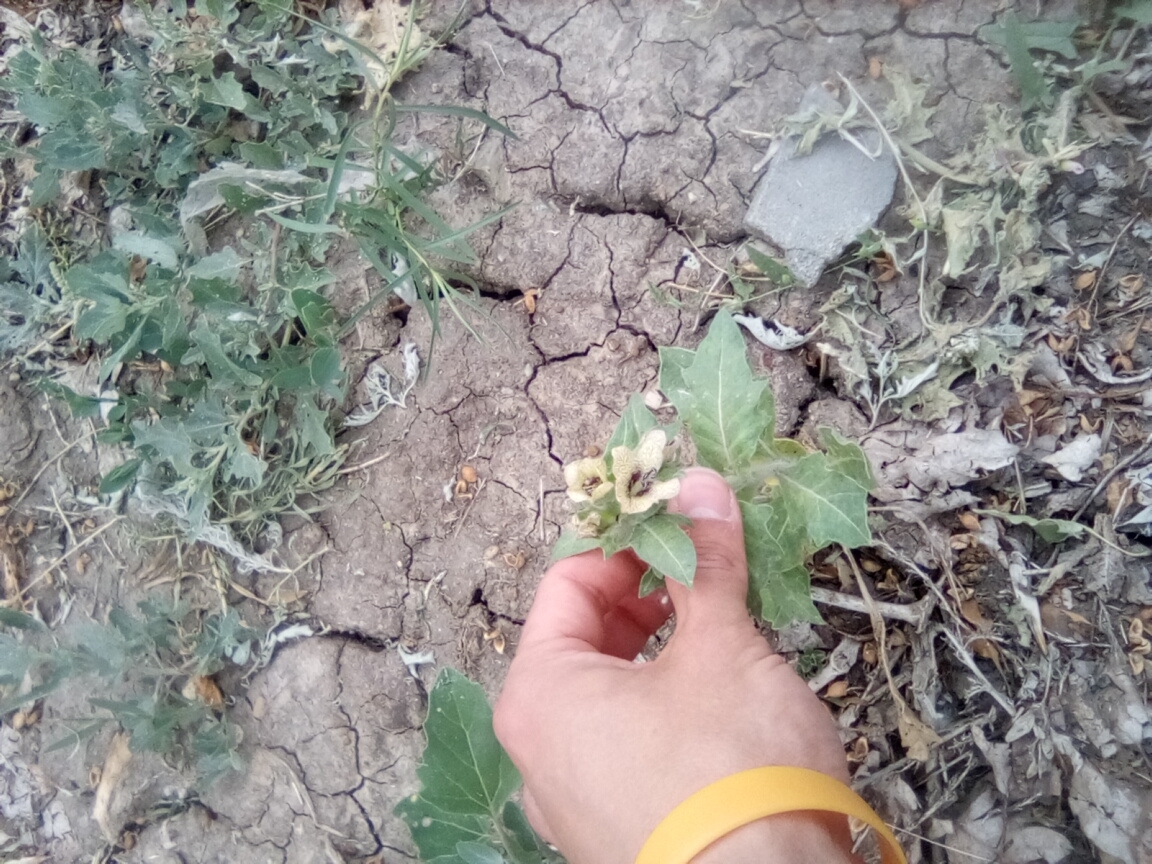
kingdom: Plantae
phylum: Tracheophyta
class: Magnoliopsida
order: Solanales
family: Solanaceae
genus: Hyoscyamus
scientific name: Hyoscyamus niger
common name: Henbane
